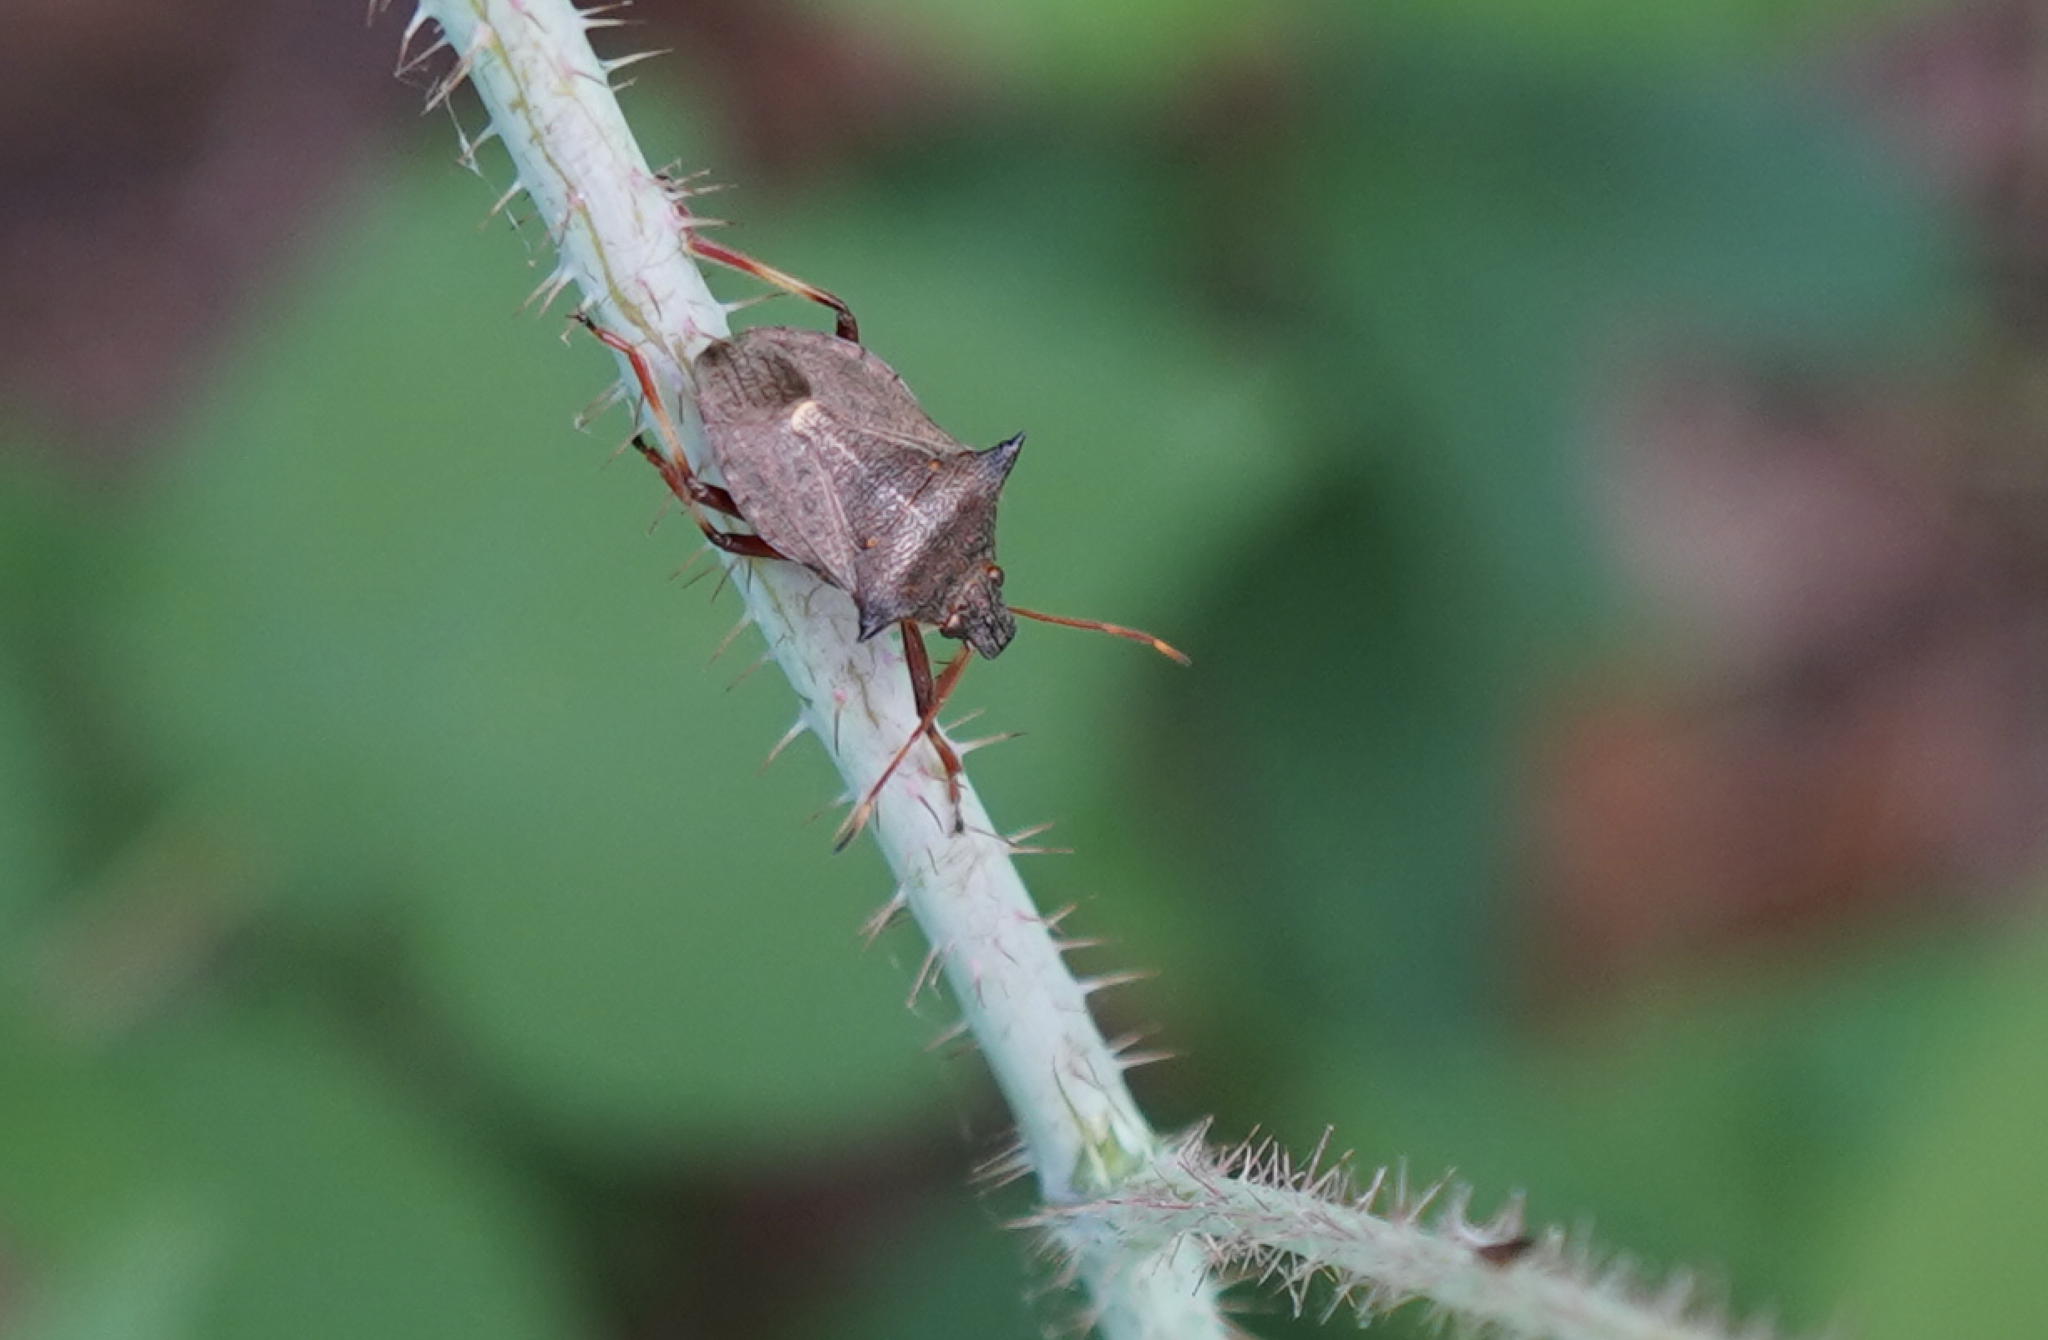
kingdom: Animalia
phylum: Arthropoda
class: Insecta
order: Hemiptera
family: Pentatomidae
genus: Picromerus
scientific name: Picromerus bidens
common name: Spiked shieldbug
